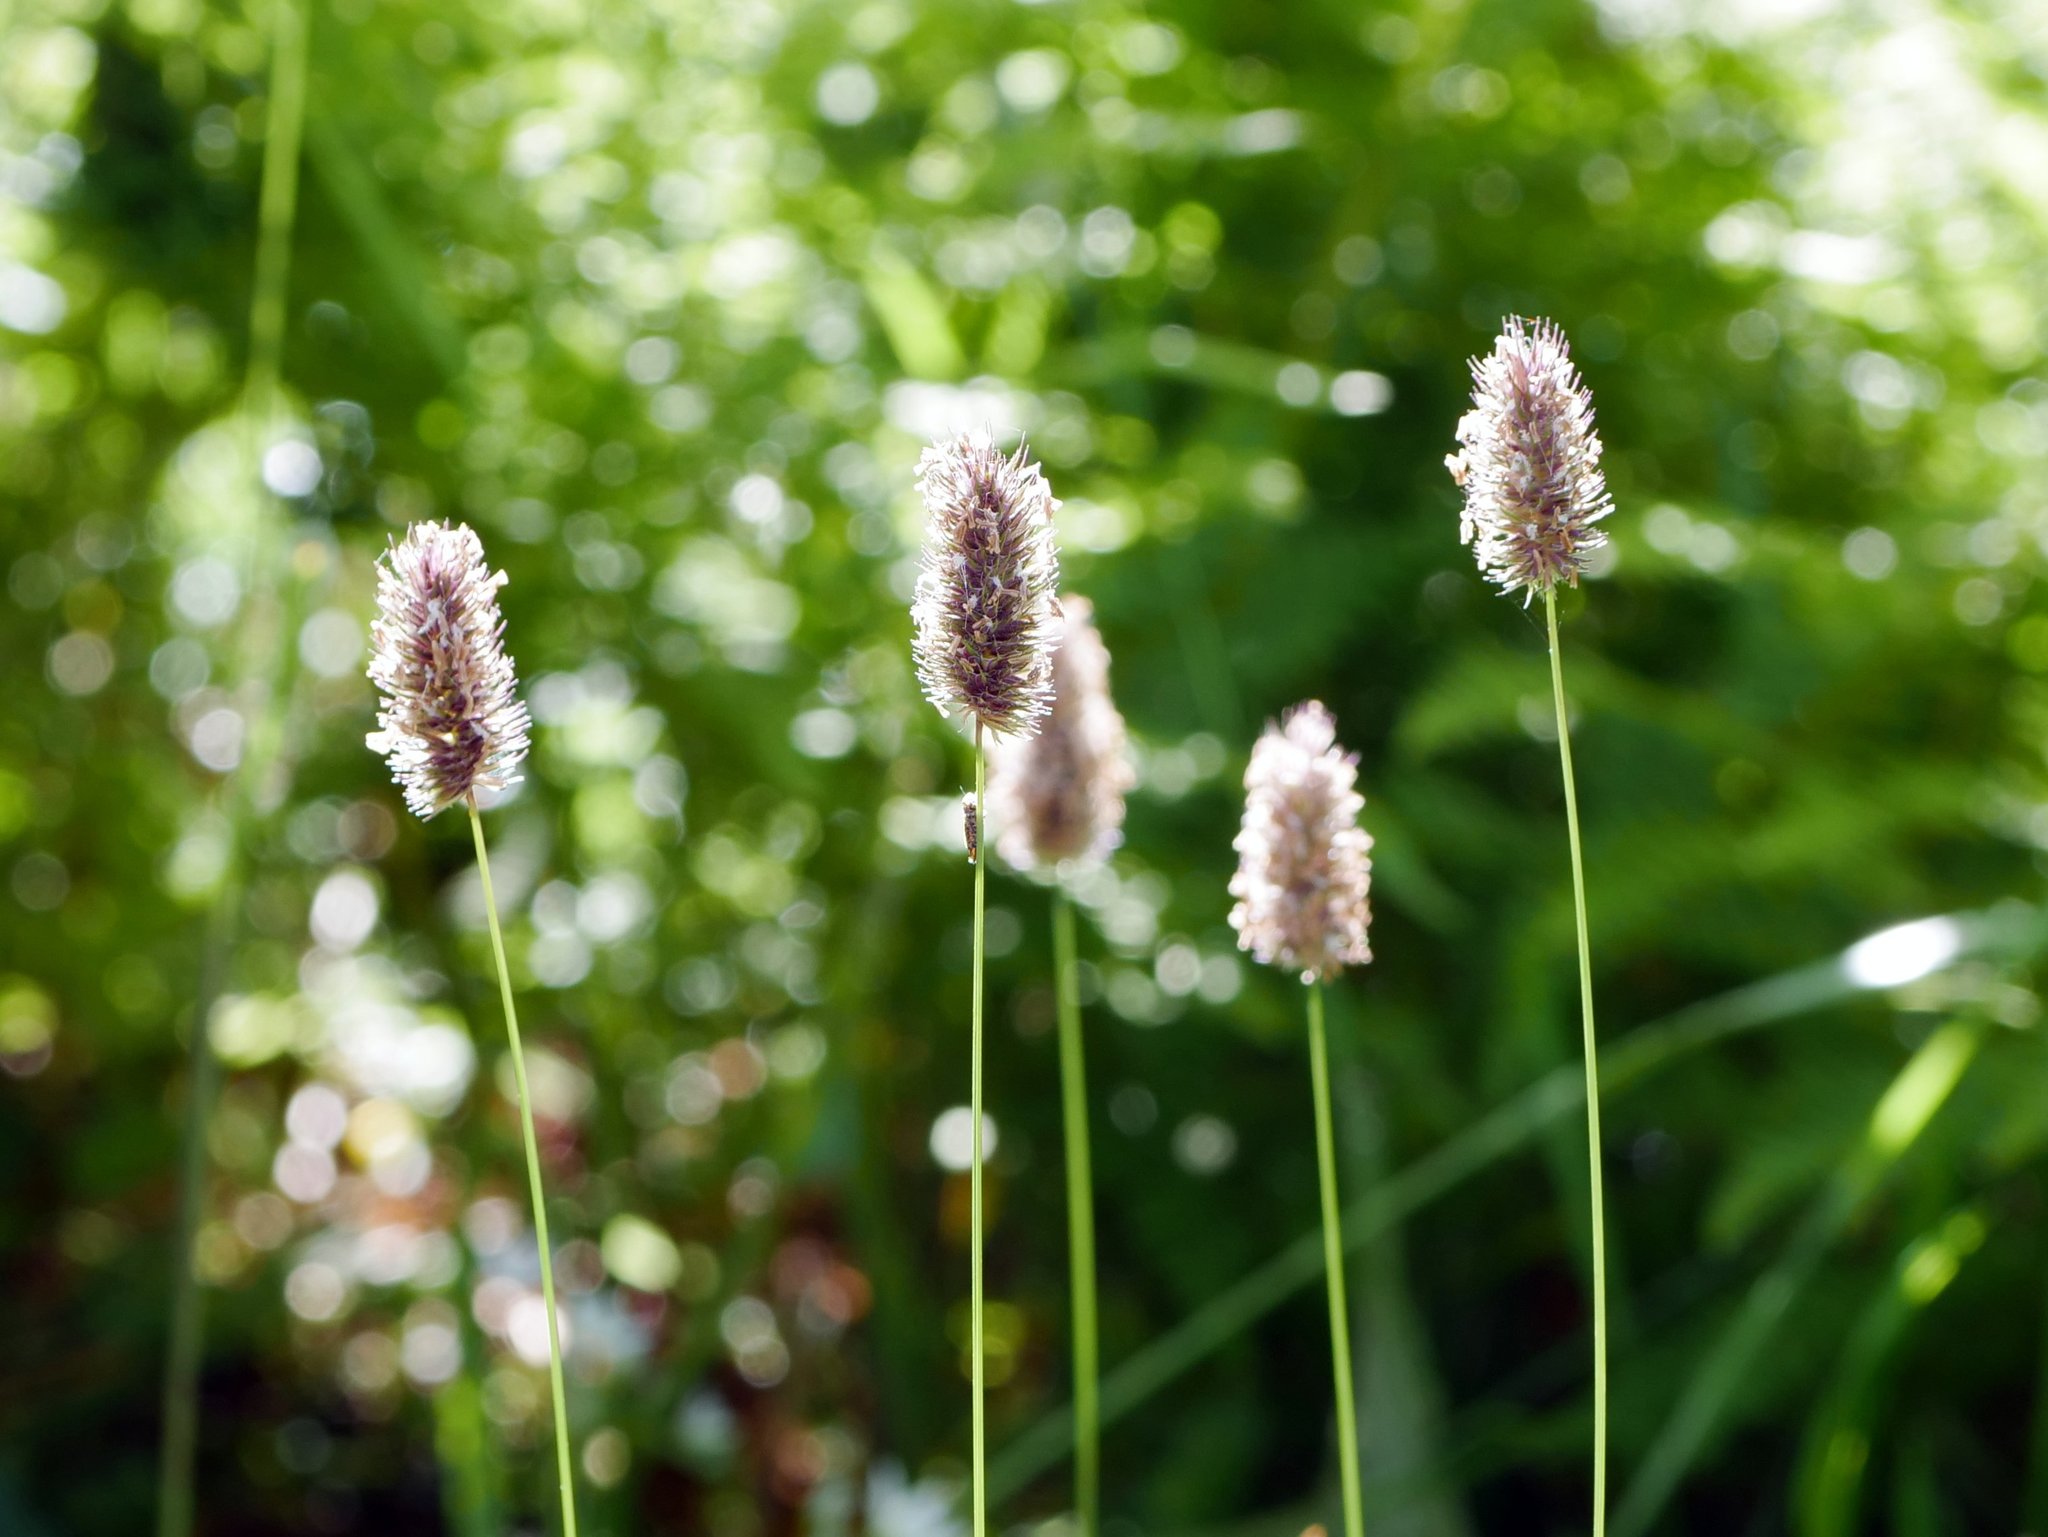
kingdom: Plantae
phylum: Tracheophyta
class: Liliopsida
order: Poales
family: Poaceae
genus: Phleum
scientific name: Phleum alpinum
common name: Alpine cat's-tail
